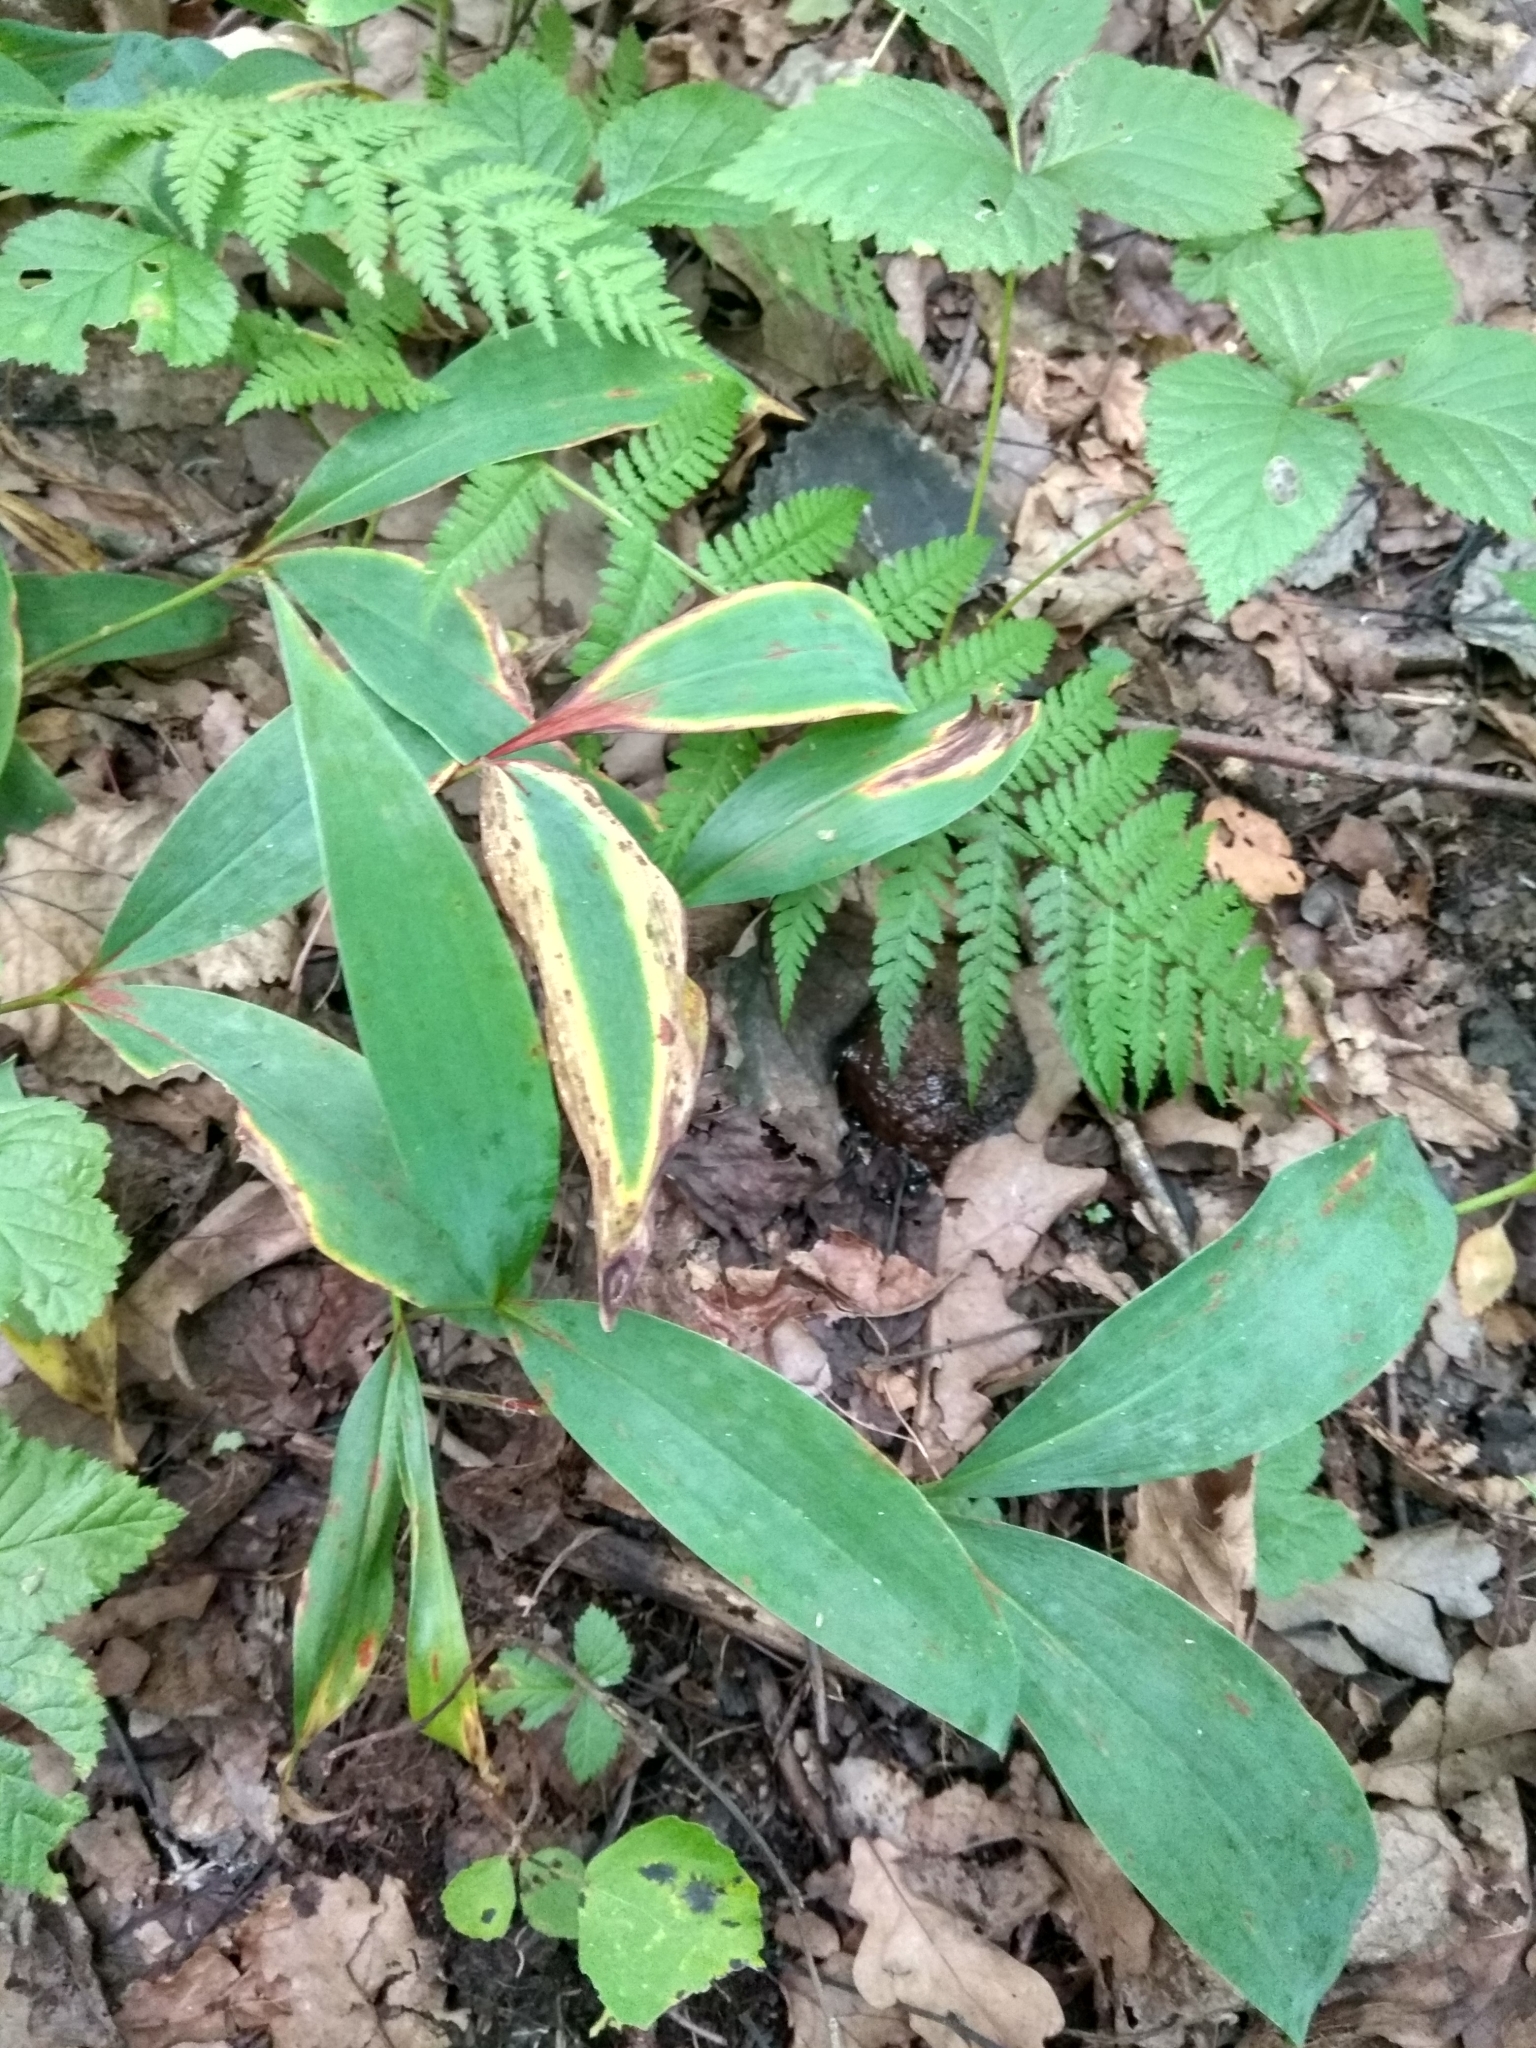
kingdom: Plantae
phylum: Tracheophyta
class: Liliopsida
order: Asparagales
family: Asparagaceae
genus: Convallaria
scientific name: Convallaria majalis
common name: Lily-of-the-valley
